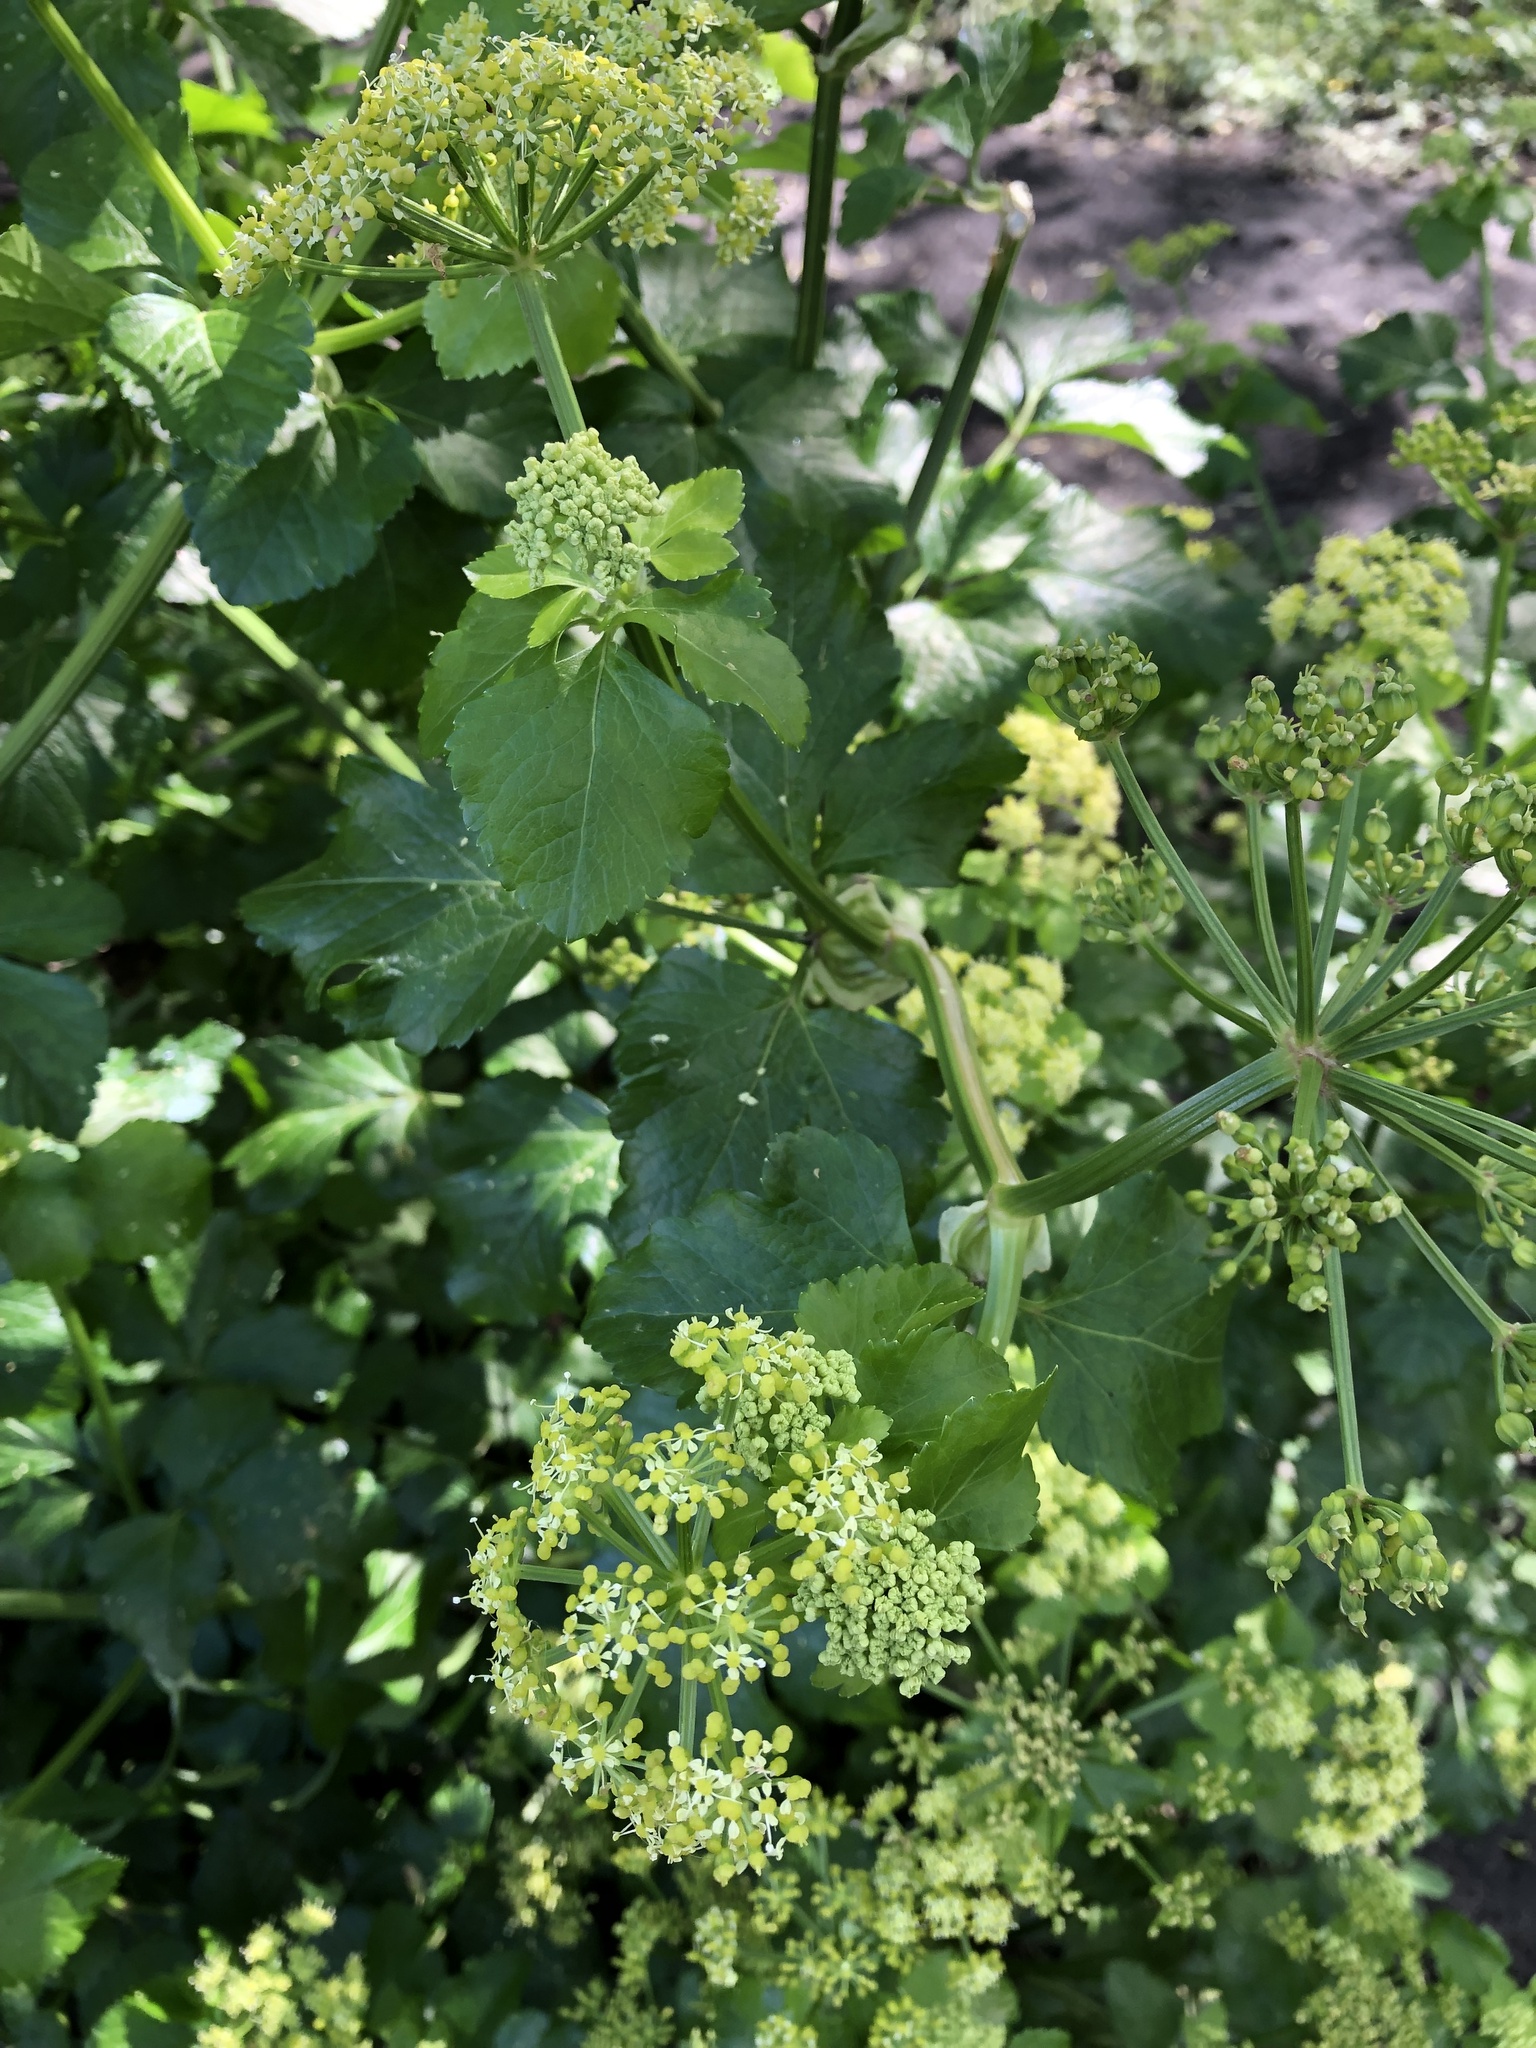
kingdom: Plantae
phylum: Tracheophyta
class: Magnoliopsida
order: Apiales
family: Apiaceae
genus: Smyrnium
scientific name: Smyrnium olusatrum
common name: Alexanders
